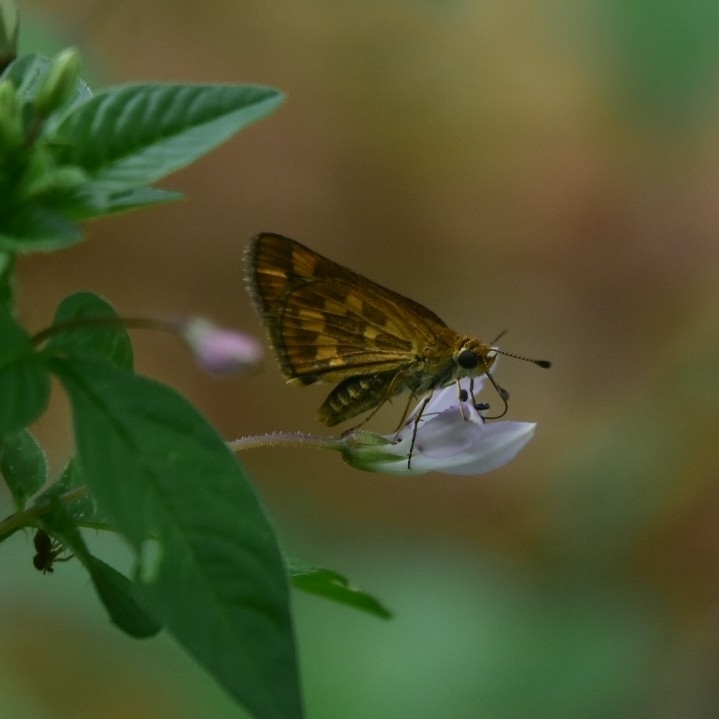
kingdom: Animalia
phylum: Arthropoda
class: Insecta
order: Lepidoptera
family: Hesperiidae
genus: Taractrocera
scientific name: Taractrocera ceramas
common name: Tamil grass dart
